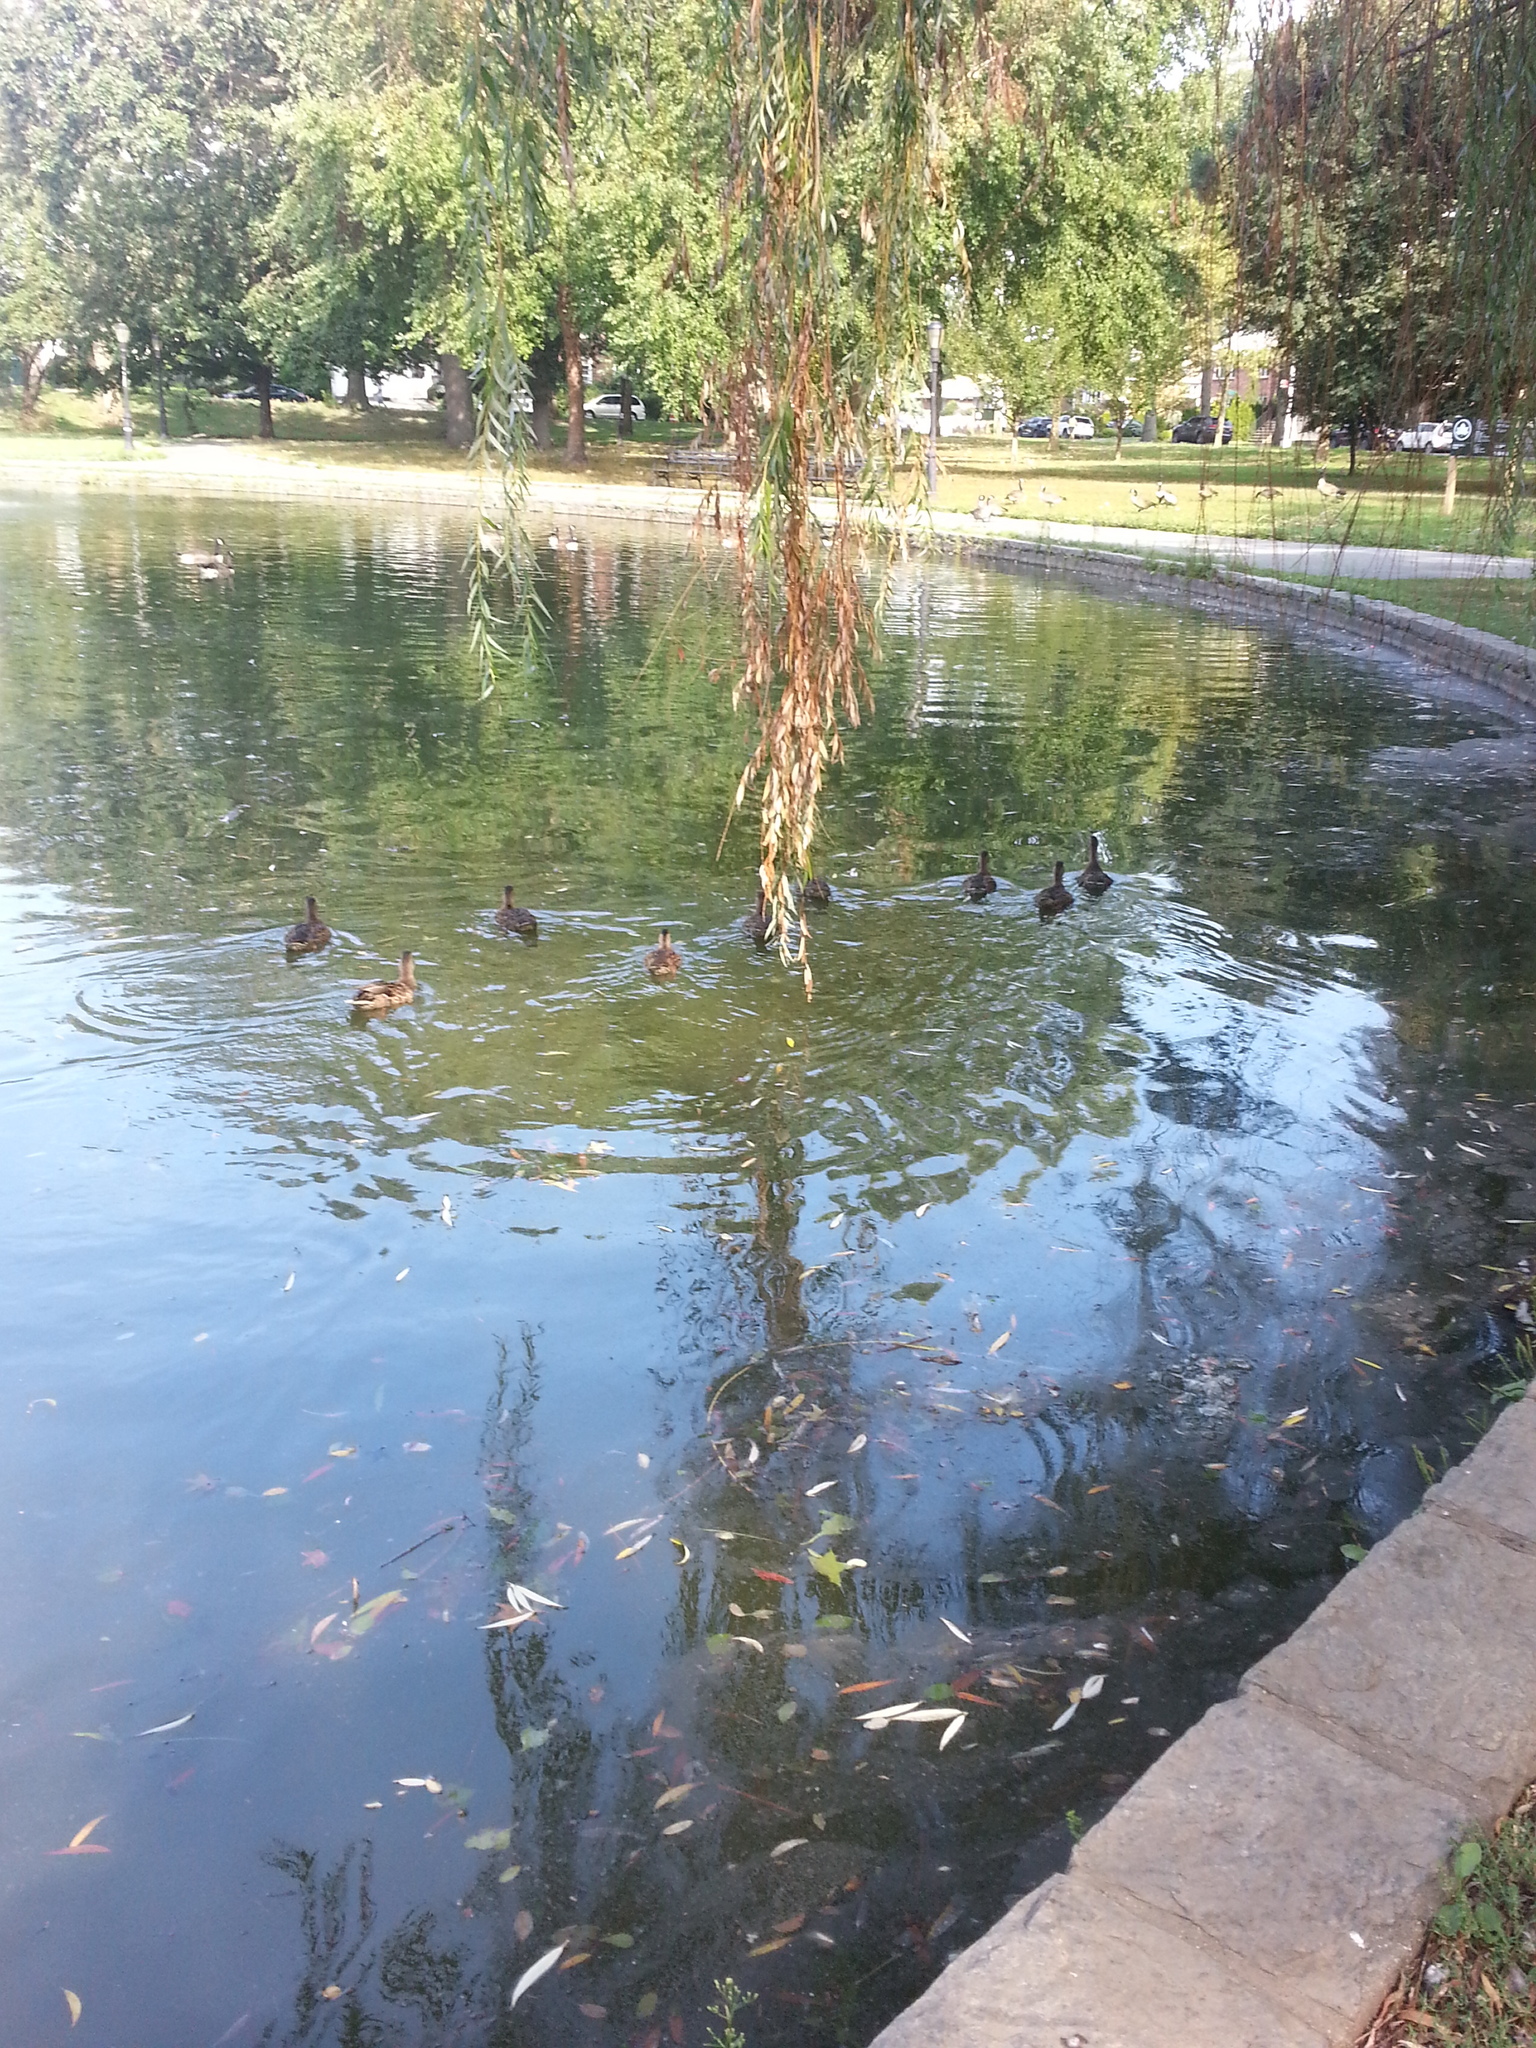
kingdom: Animalia
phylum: Chordata
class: Aves
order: Anseriformes
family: Anatidae
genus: Anas
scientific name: Anas platyrhynchos
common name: Mallard
